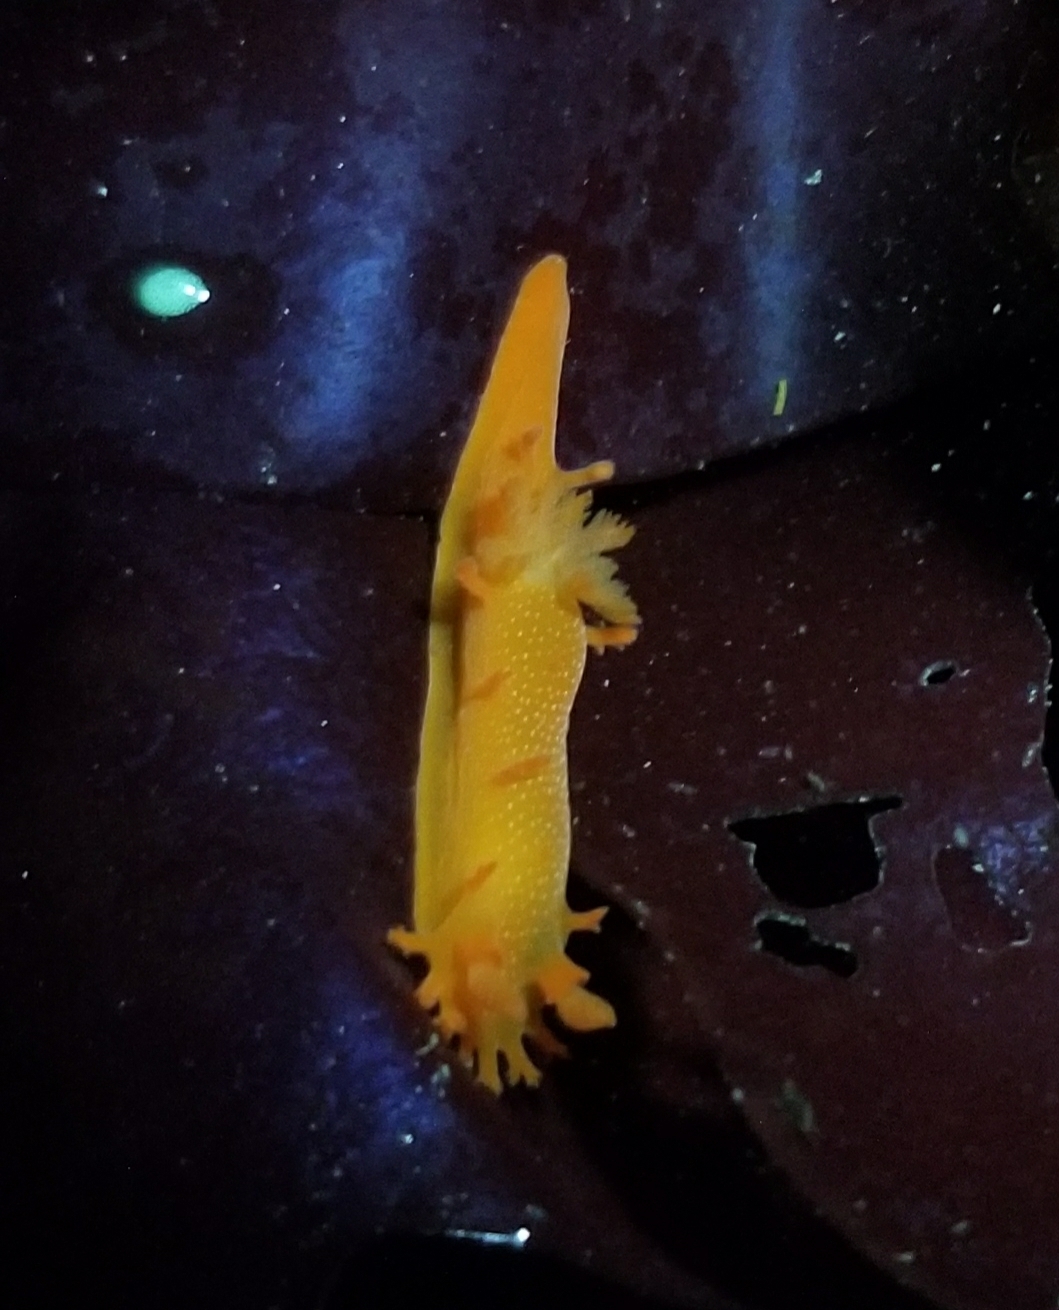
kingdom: Animalia
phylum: Mollusca
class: Gastropoda
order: Nudibranchia
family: Polyceridae
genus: Triopha
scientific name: Triopha maculata
